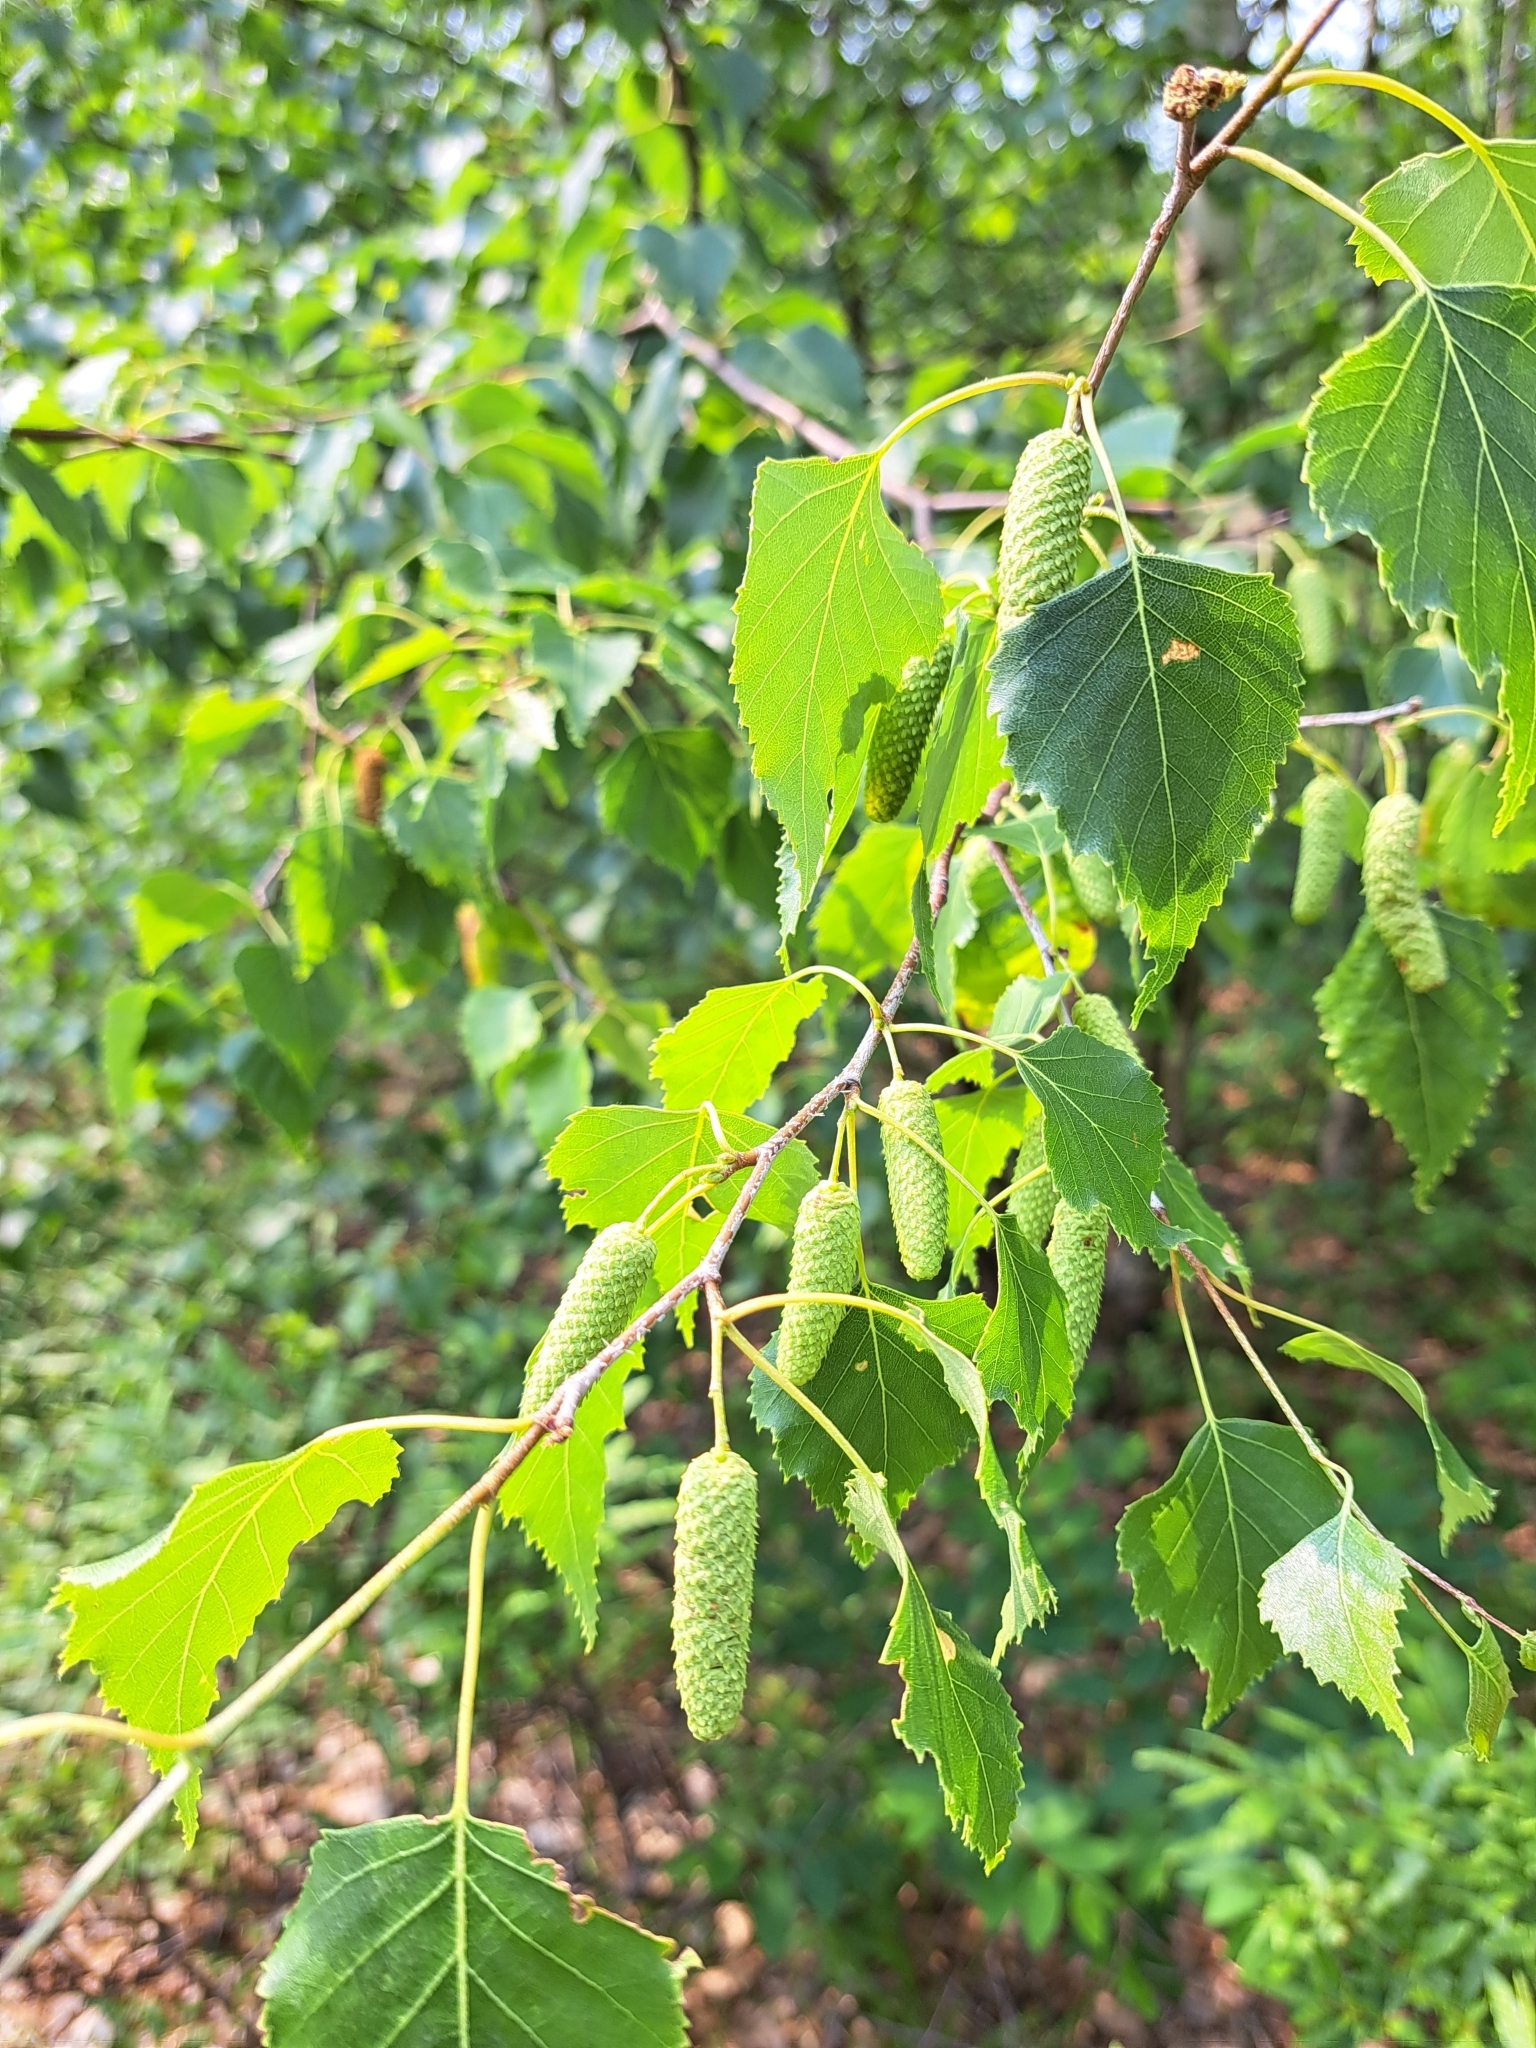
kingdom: Plantae
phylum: Tracheophyta
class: Magnoliopsida
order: Fagales
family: Betulaceae
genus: Betula
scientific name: Betula populifolia
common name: Fire birch
